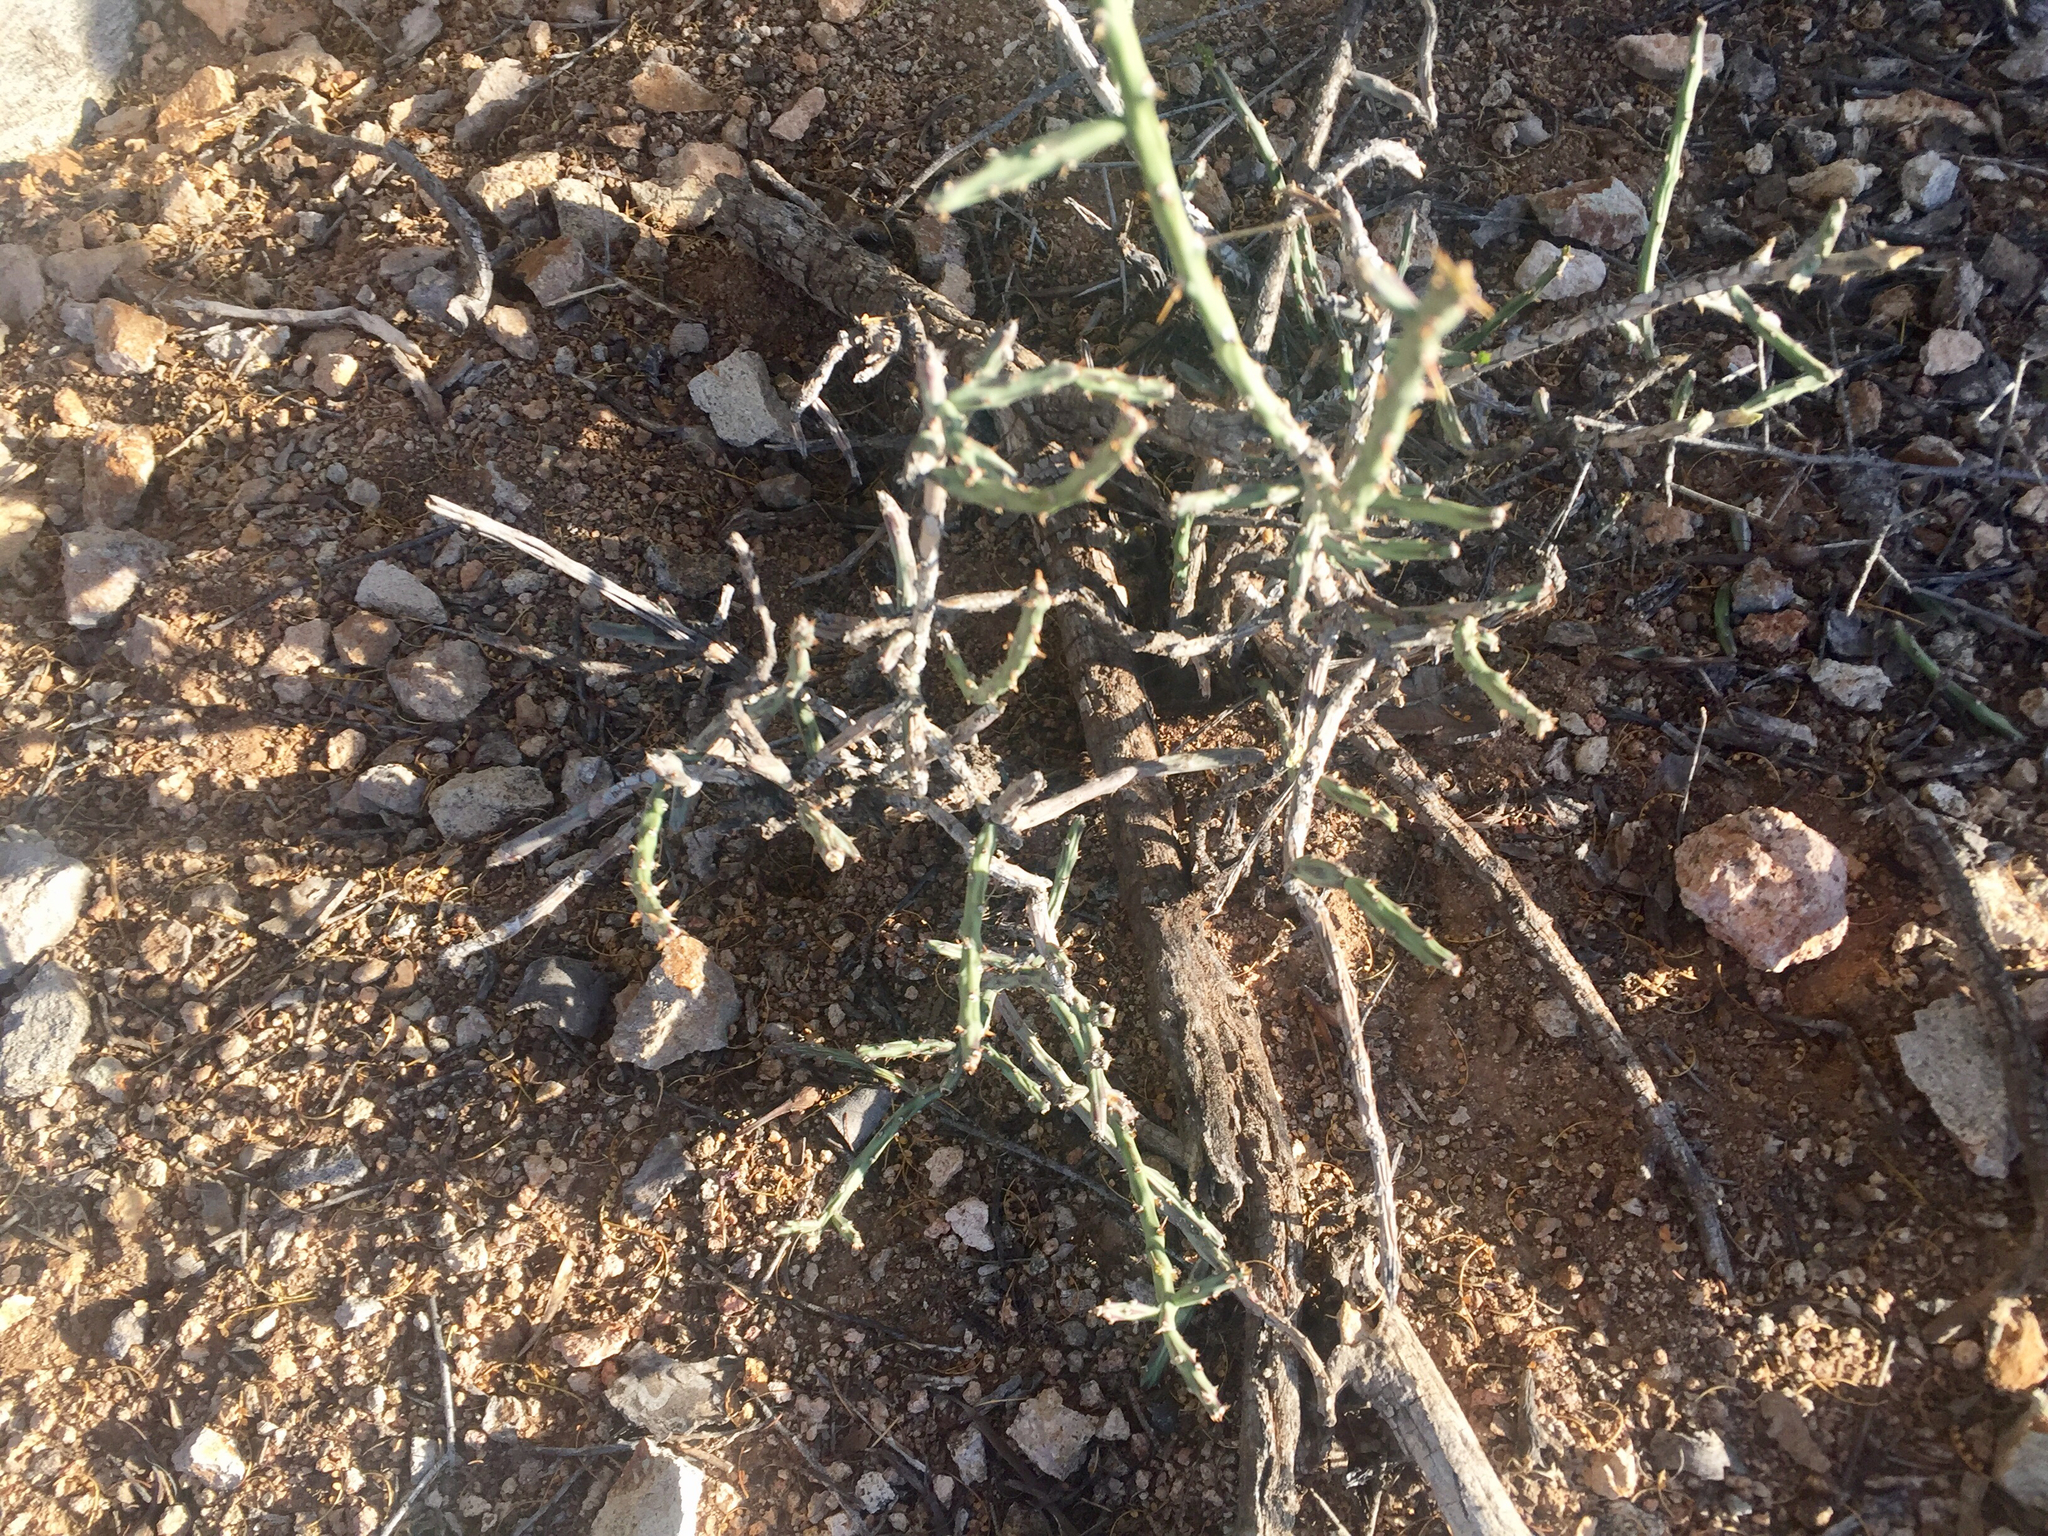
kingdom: Plantae
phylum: Tracheophyta
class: Magnoliopsida
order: Caryophyllales
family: Cactaceae
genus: Cylindropuntia
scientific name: Cylindropuntia leptocaulis
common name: Christmas cactus
